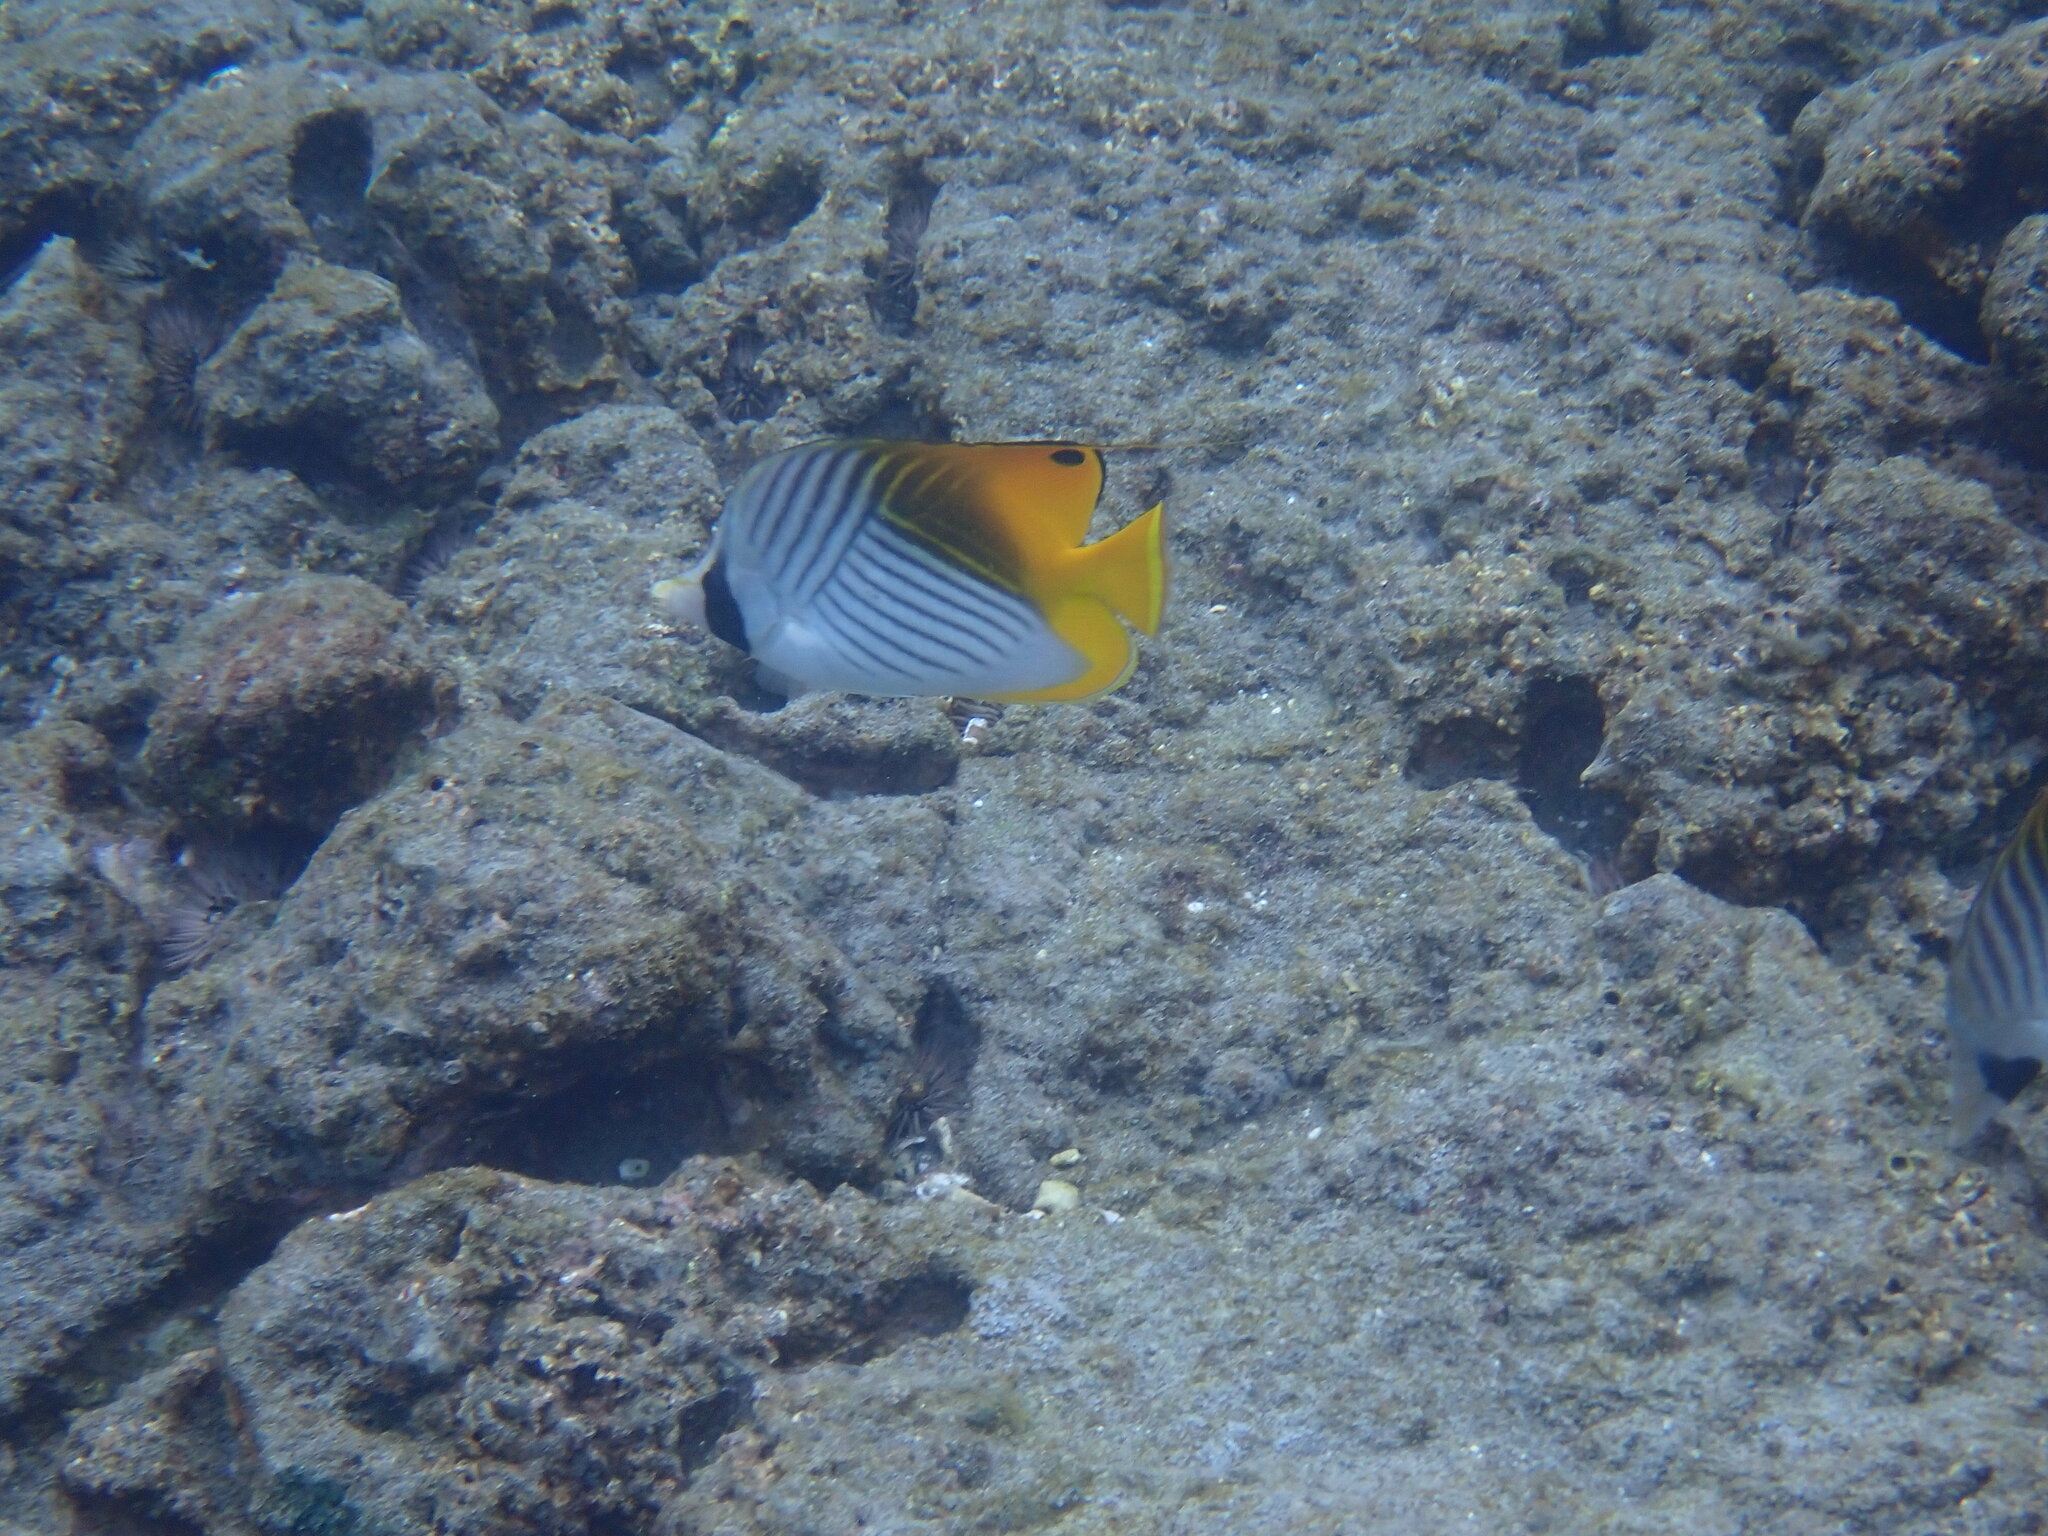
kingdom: Animalia
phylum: Chordata
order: Perciformes
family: Chaetodontidae
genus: Chaetodon
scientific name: Chaetodon auriga
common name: Threadfin butterflyfish
